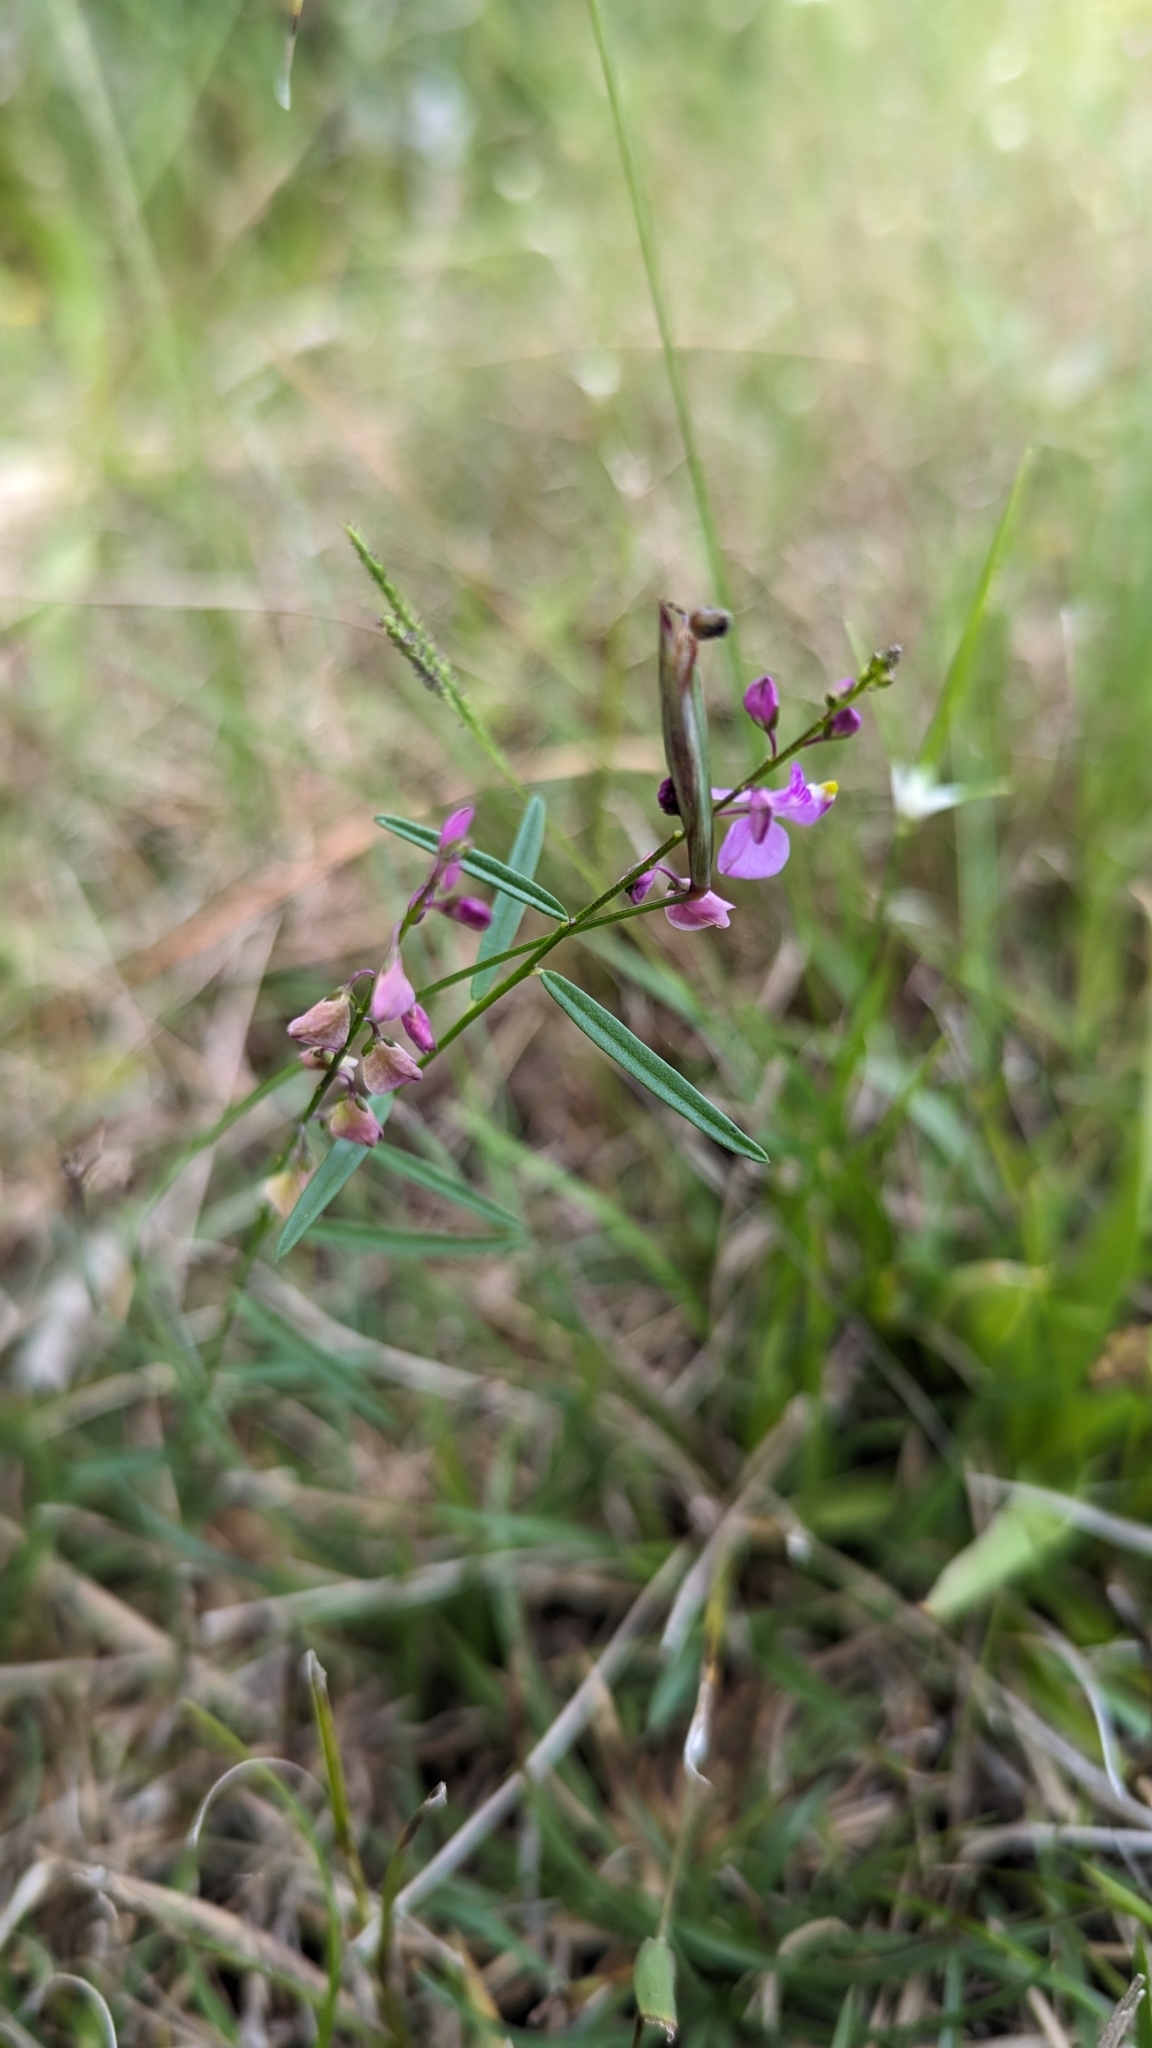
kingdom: Plantae
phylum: Tracheophyta
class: Magnoliopsida
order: Fabales
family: Polygalaceae
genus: Asemeia
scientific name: Asemeia grandiflora
